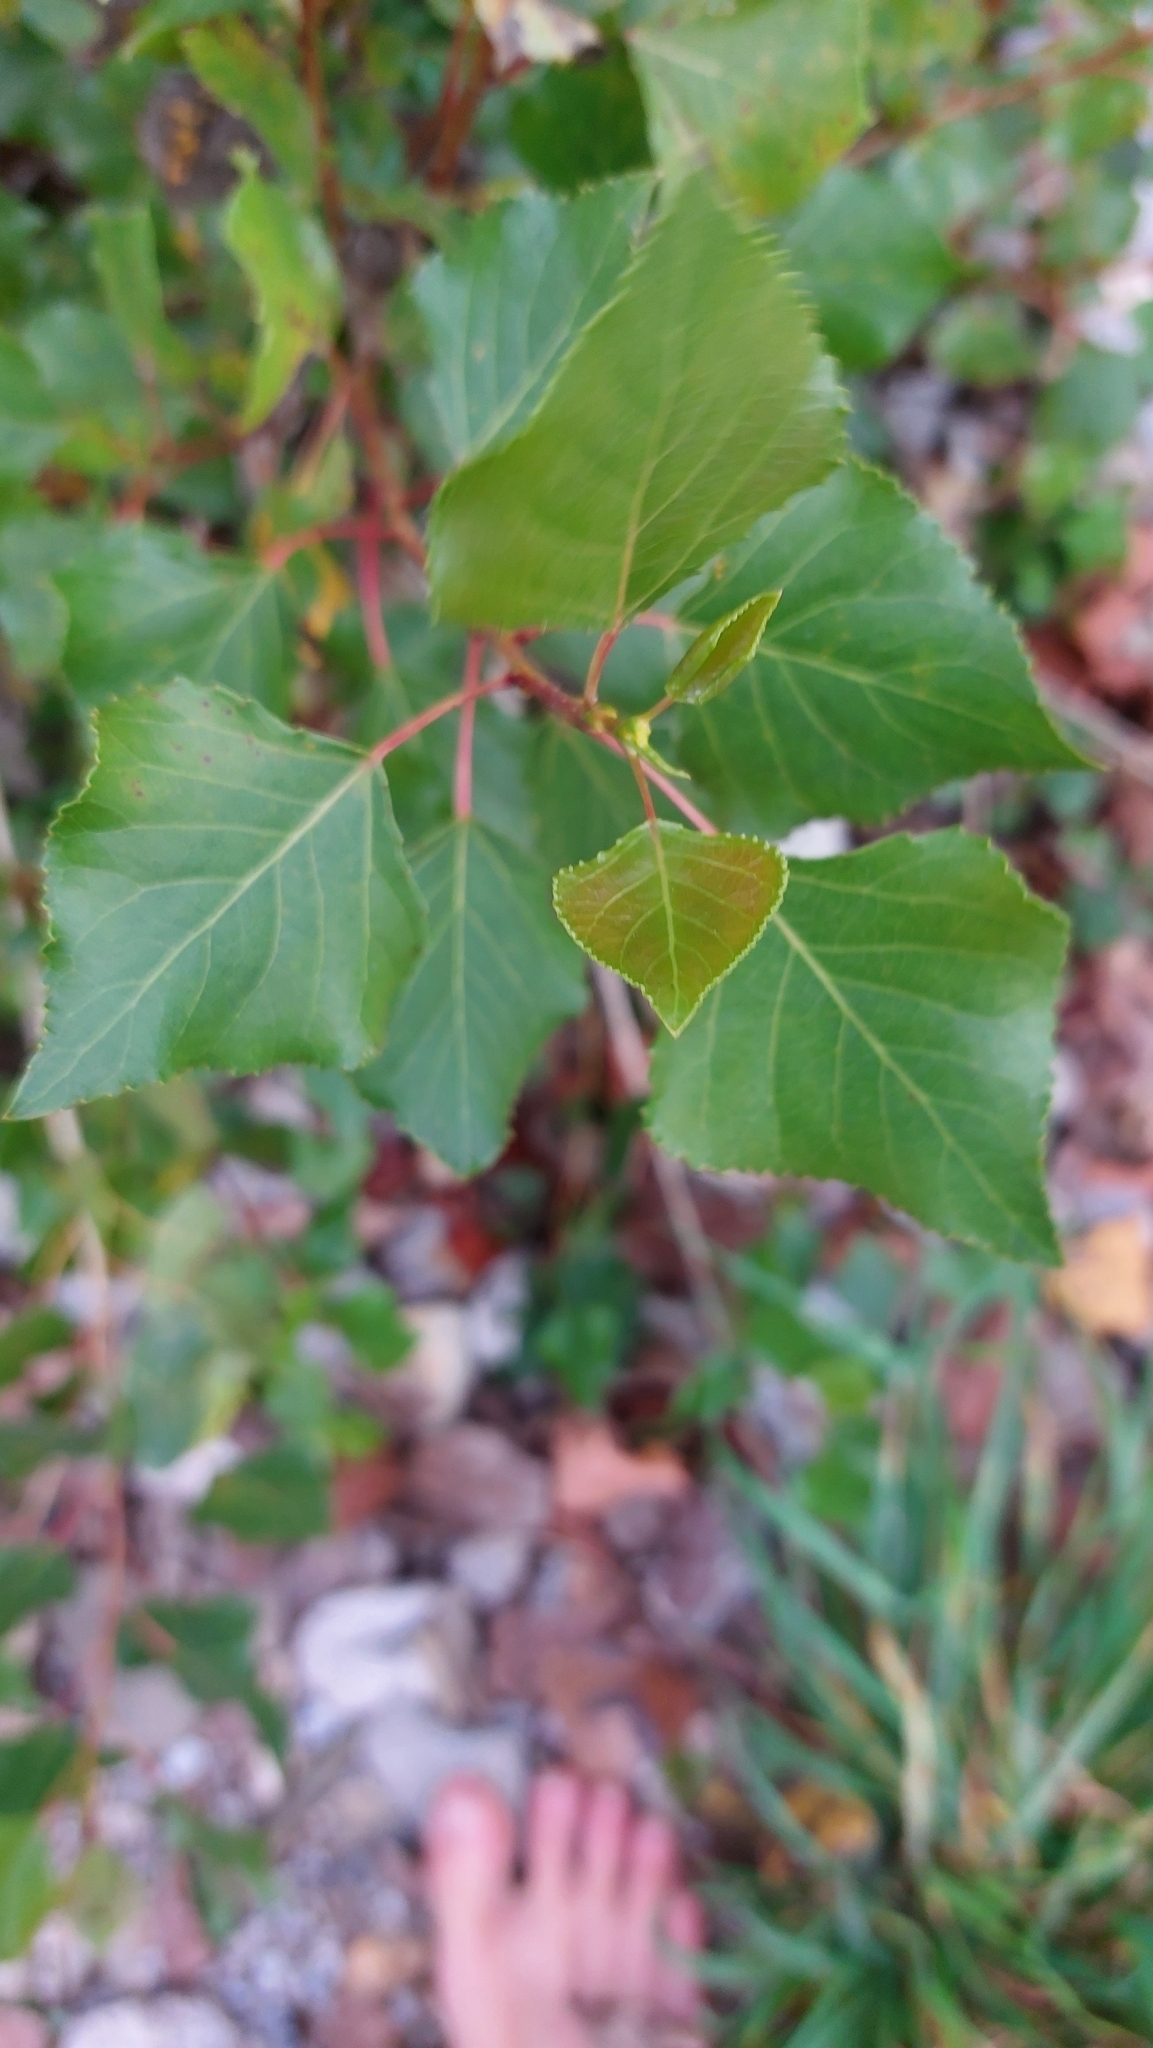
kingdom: Plantae
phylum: Tracheophyta
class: Magnoliopsida
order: Malpighiales
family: Salicaceae
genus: Populus
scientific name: Populus nigra
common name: Black poplar
